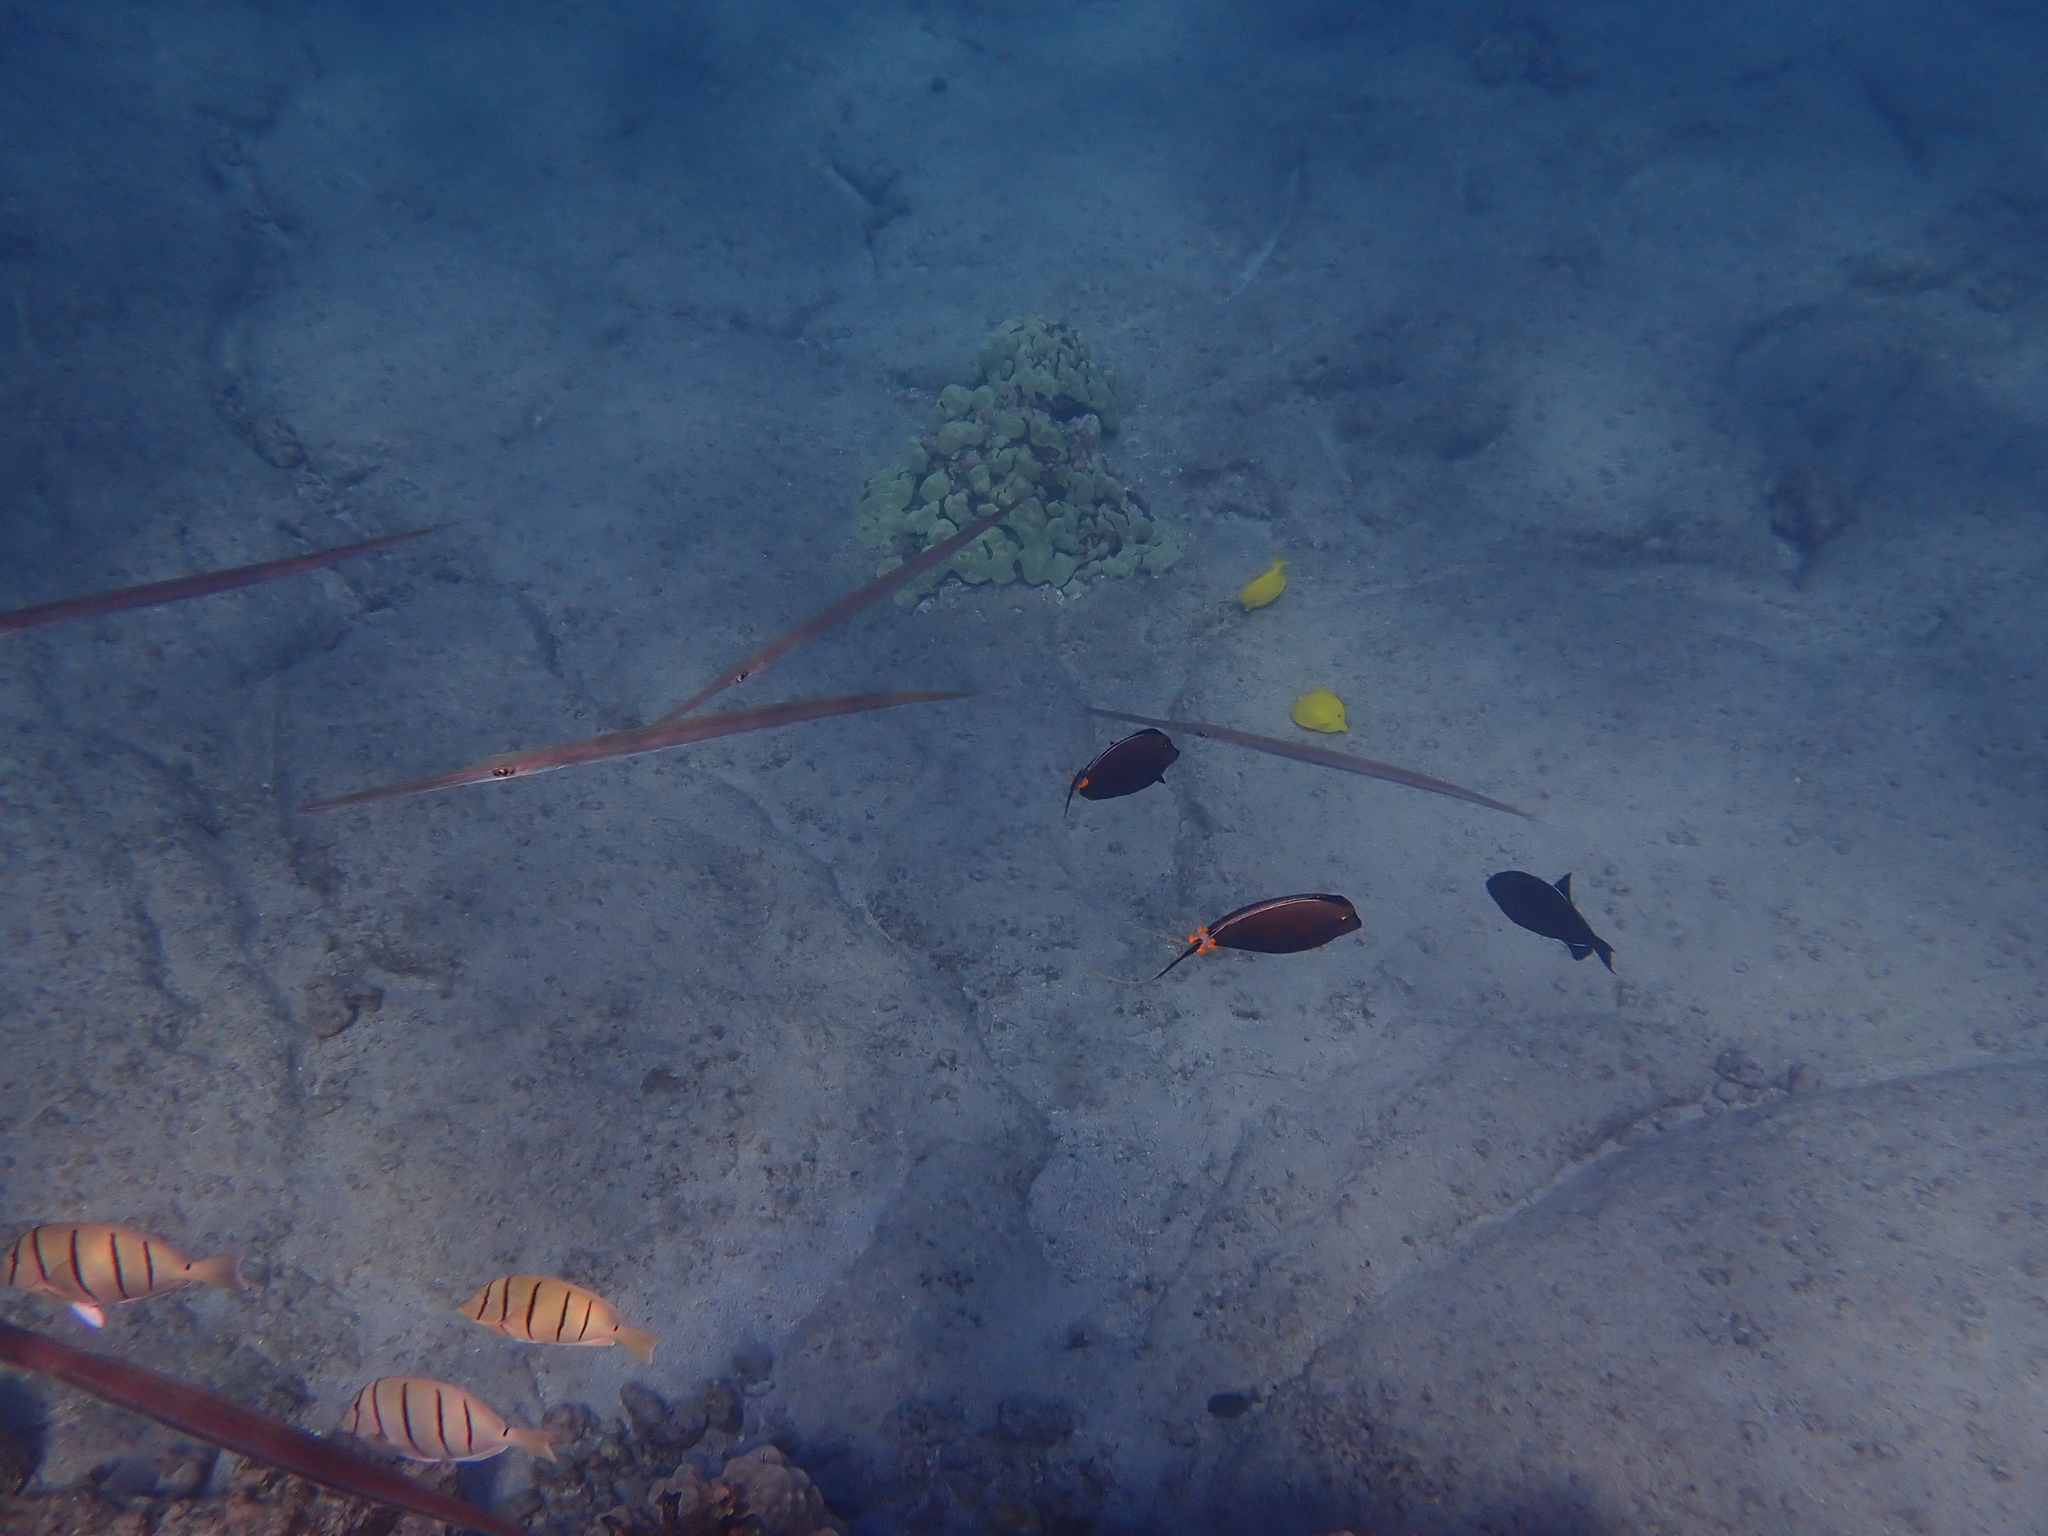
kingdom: Animalia
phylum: Chordata
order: Syngnathiformes
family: Fistulariidae
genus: Fistularia
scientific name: Fistularia commersonii
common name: Bluespotted cornetfish
